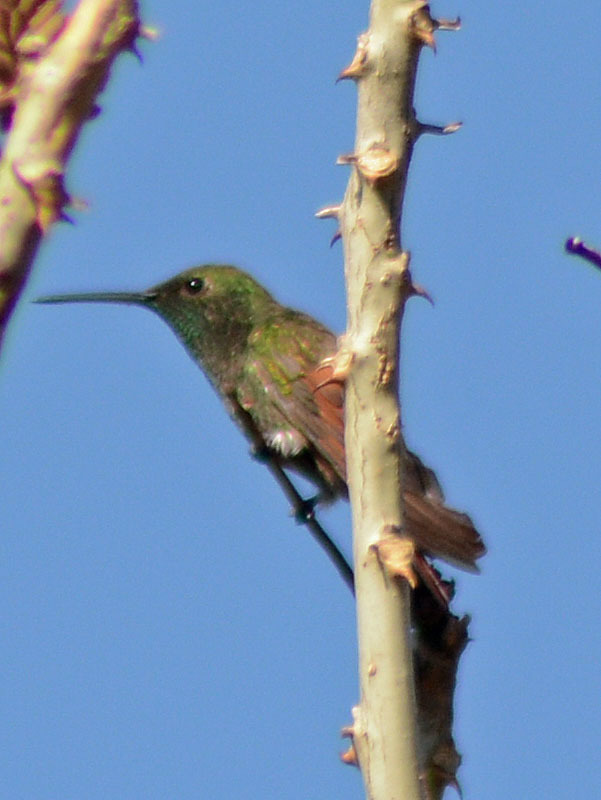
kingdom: Animalia
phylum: Chordata
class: Aves
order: Apodiformes
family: Trochilidae
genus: Saucerottia
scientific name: Saucerottia beryllina
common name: Berylline hummingbird
